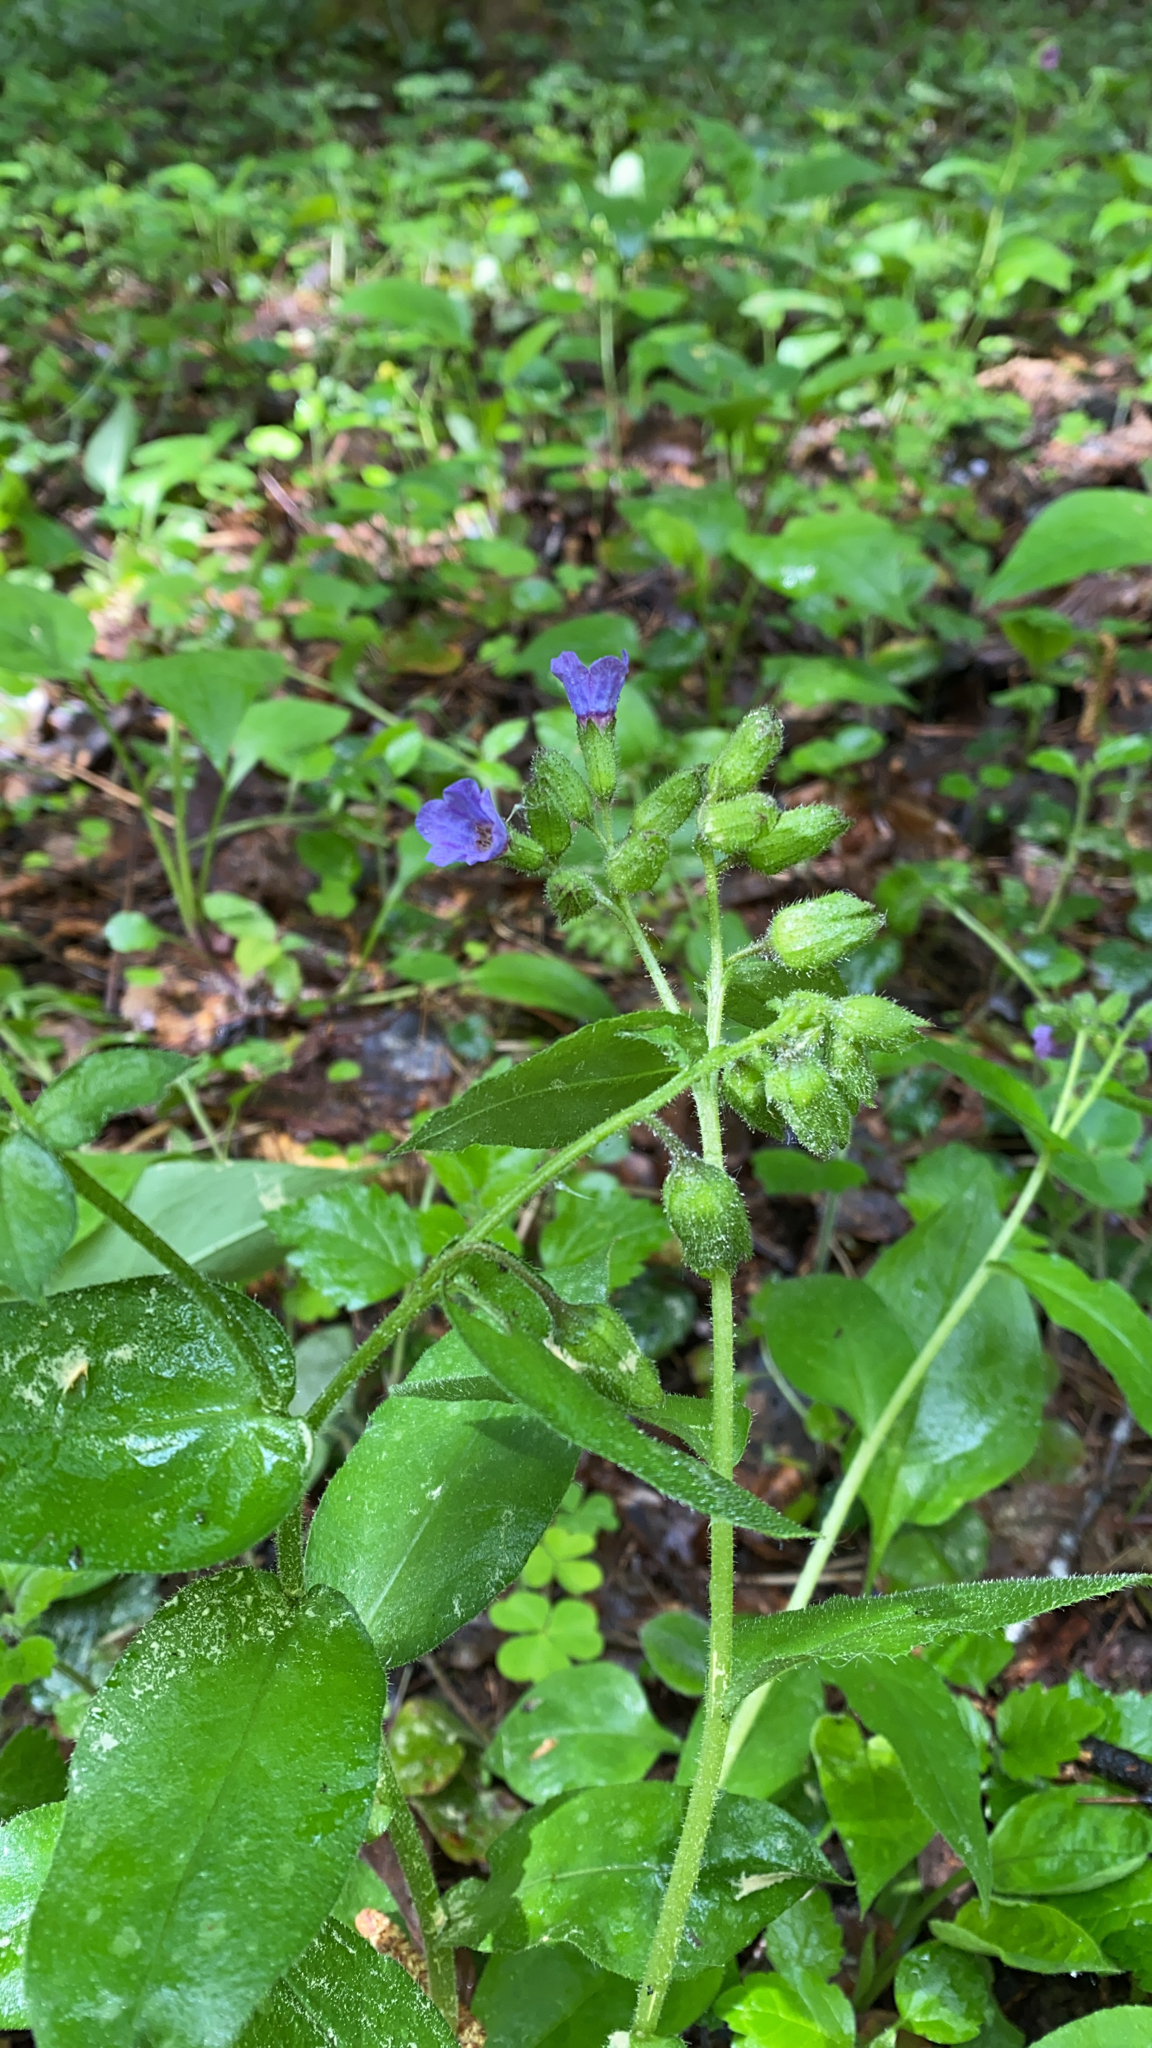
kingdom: Plantae
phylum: Tracheophyta
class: Magnoliopsida
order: Boraginales
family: Boraginaceae
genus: Pulmonaria
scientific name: Pulmonaria obscura
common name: Suffolk lungwort
